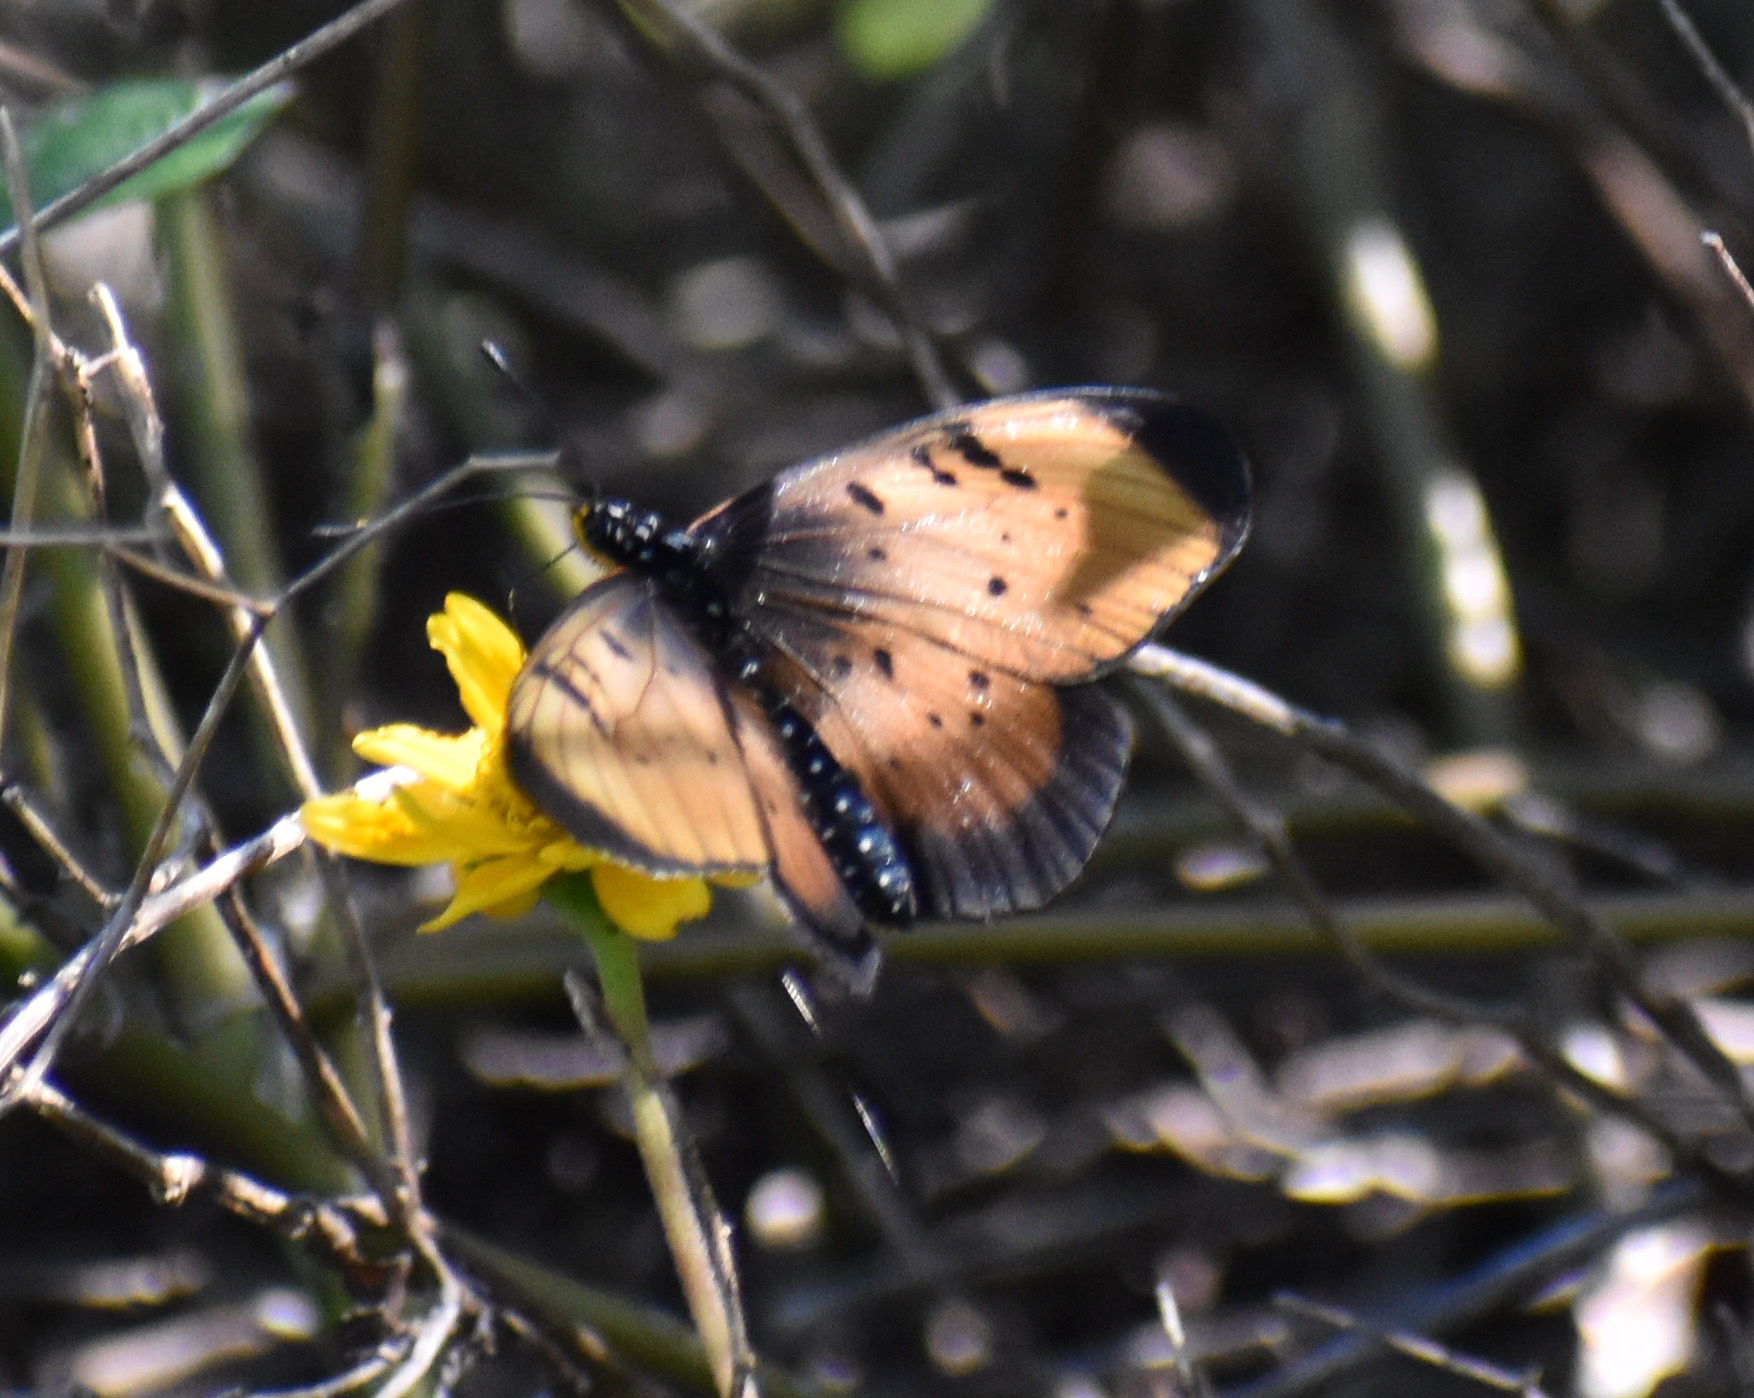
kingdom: Animalia
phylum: Arthropoda
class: Insecta
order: Lepidoptera
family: Nymphalidae
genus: Stephenia
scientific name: Stephenia
